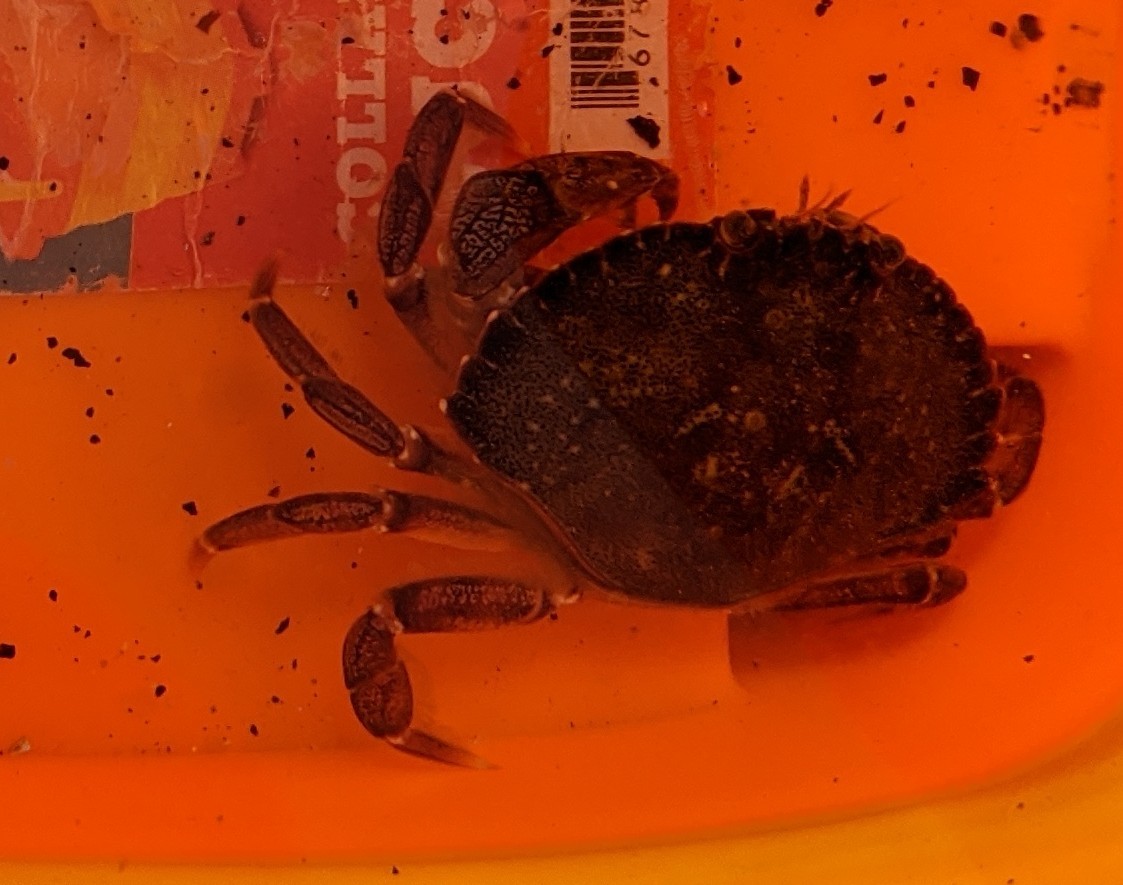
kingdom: Animalia
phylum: Arthropoda
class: Malacostraca
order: Decapoda
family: Cancridae
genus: Cancer
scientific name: Cancer irroratus
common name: Atlantic rock crab
